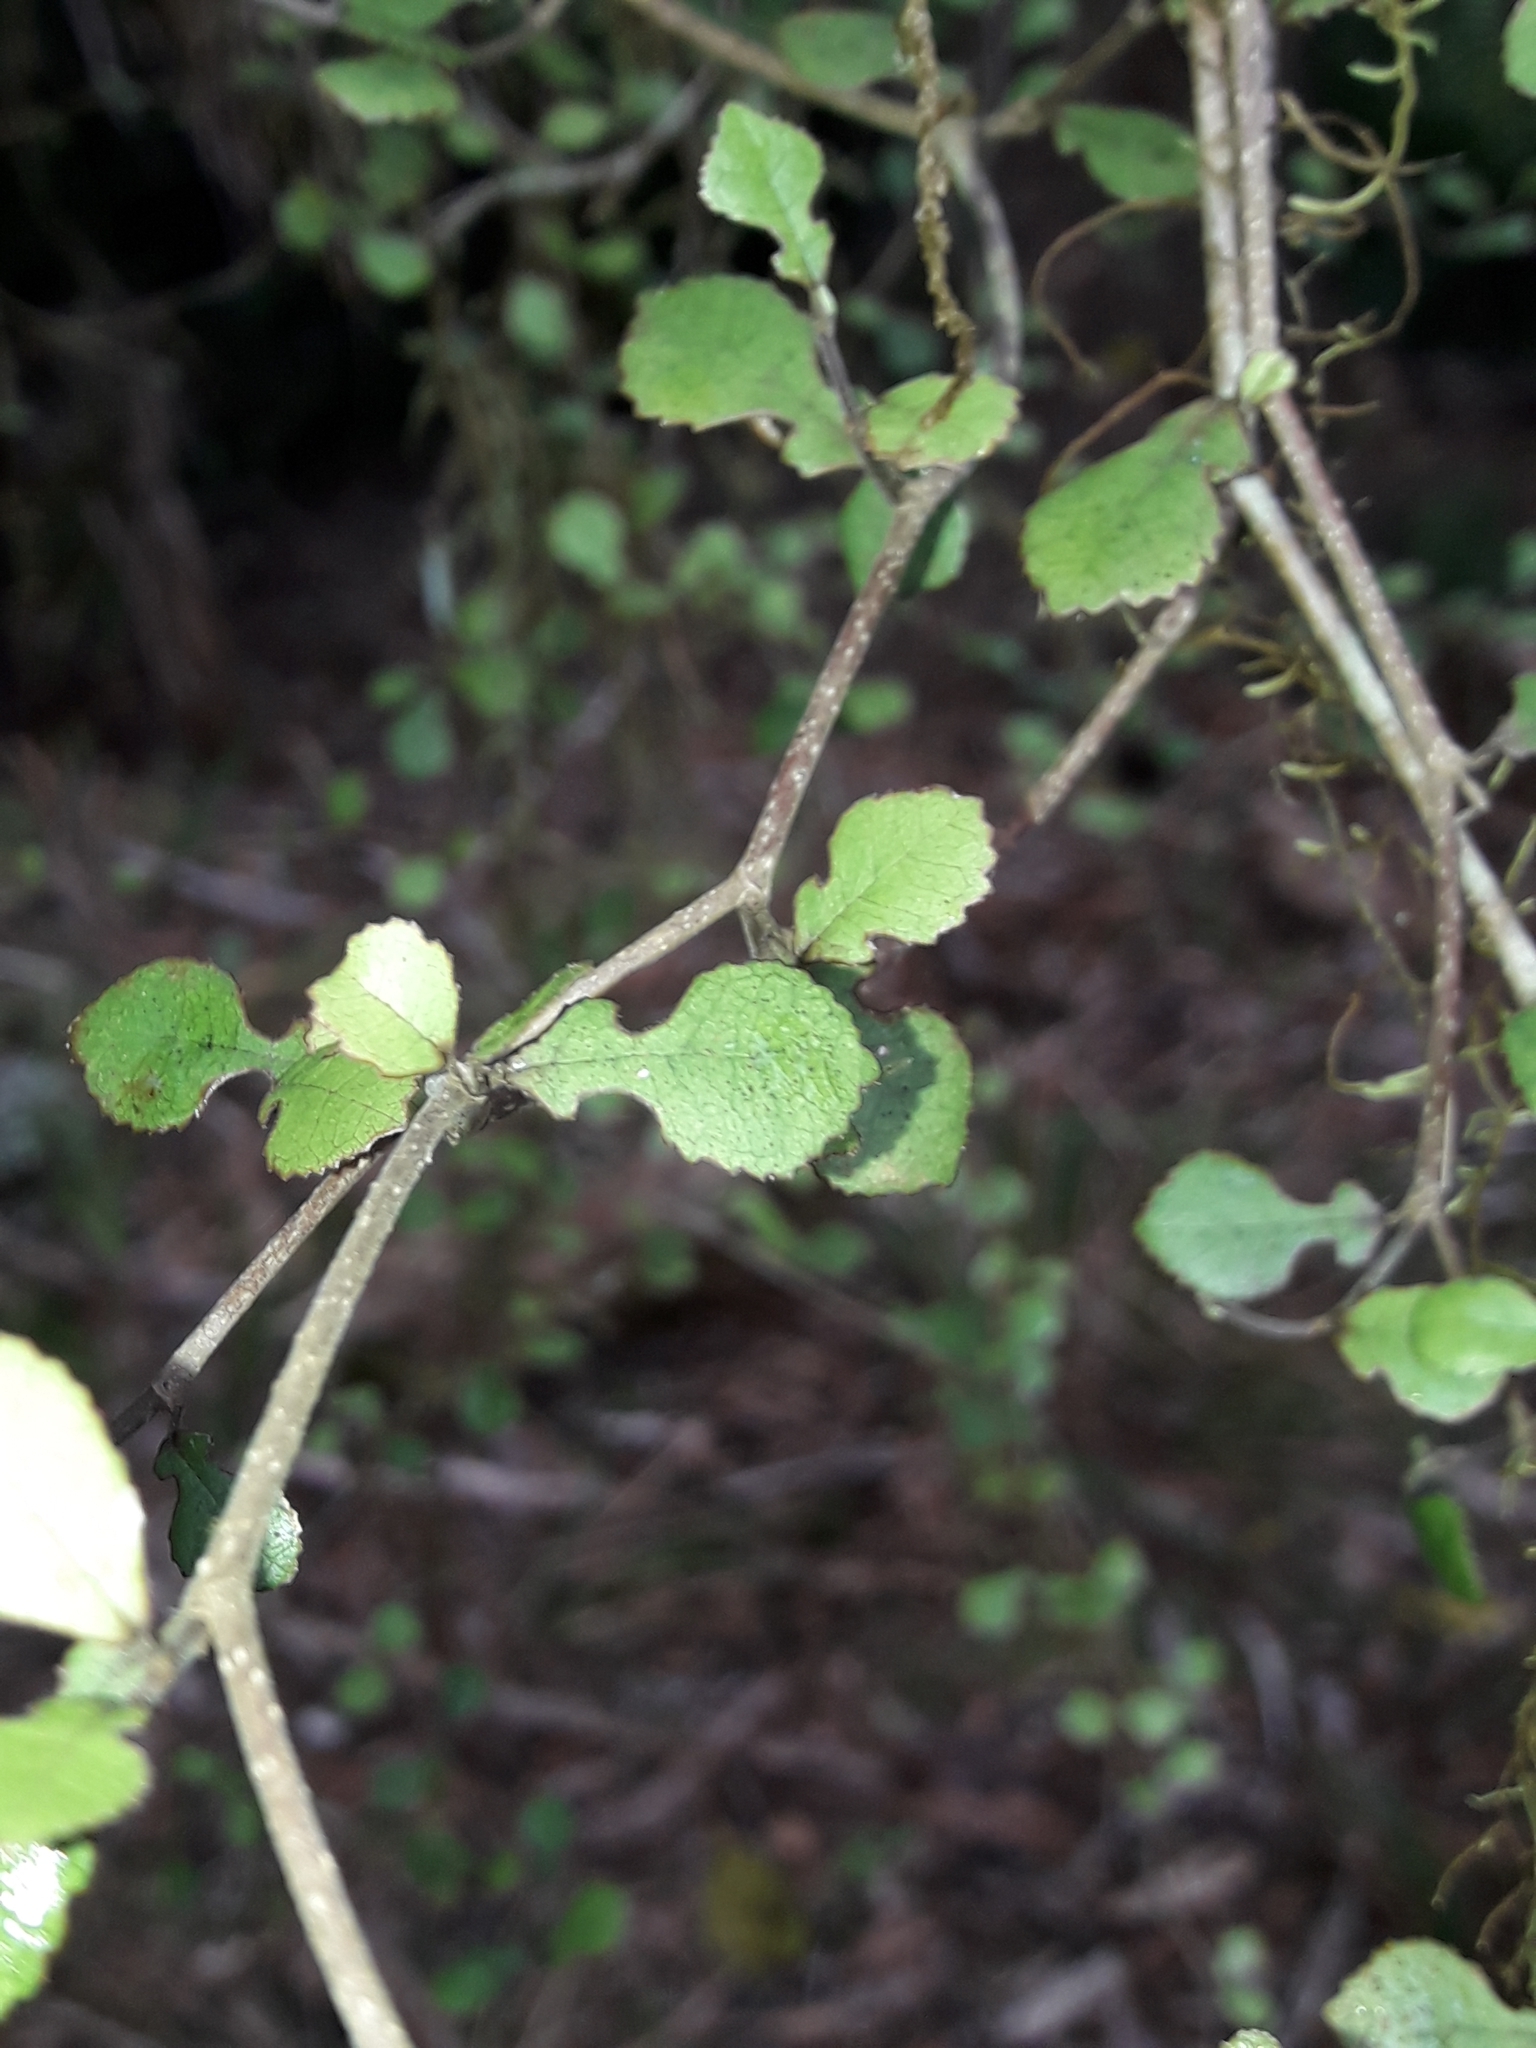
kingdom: Plantae
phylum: Tracheophyta
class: Magnoliopsida
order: Rosales
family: Moraceae
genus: Paratrophis
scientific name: Paratrophis microphylla
